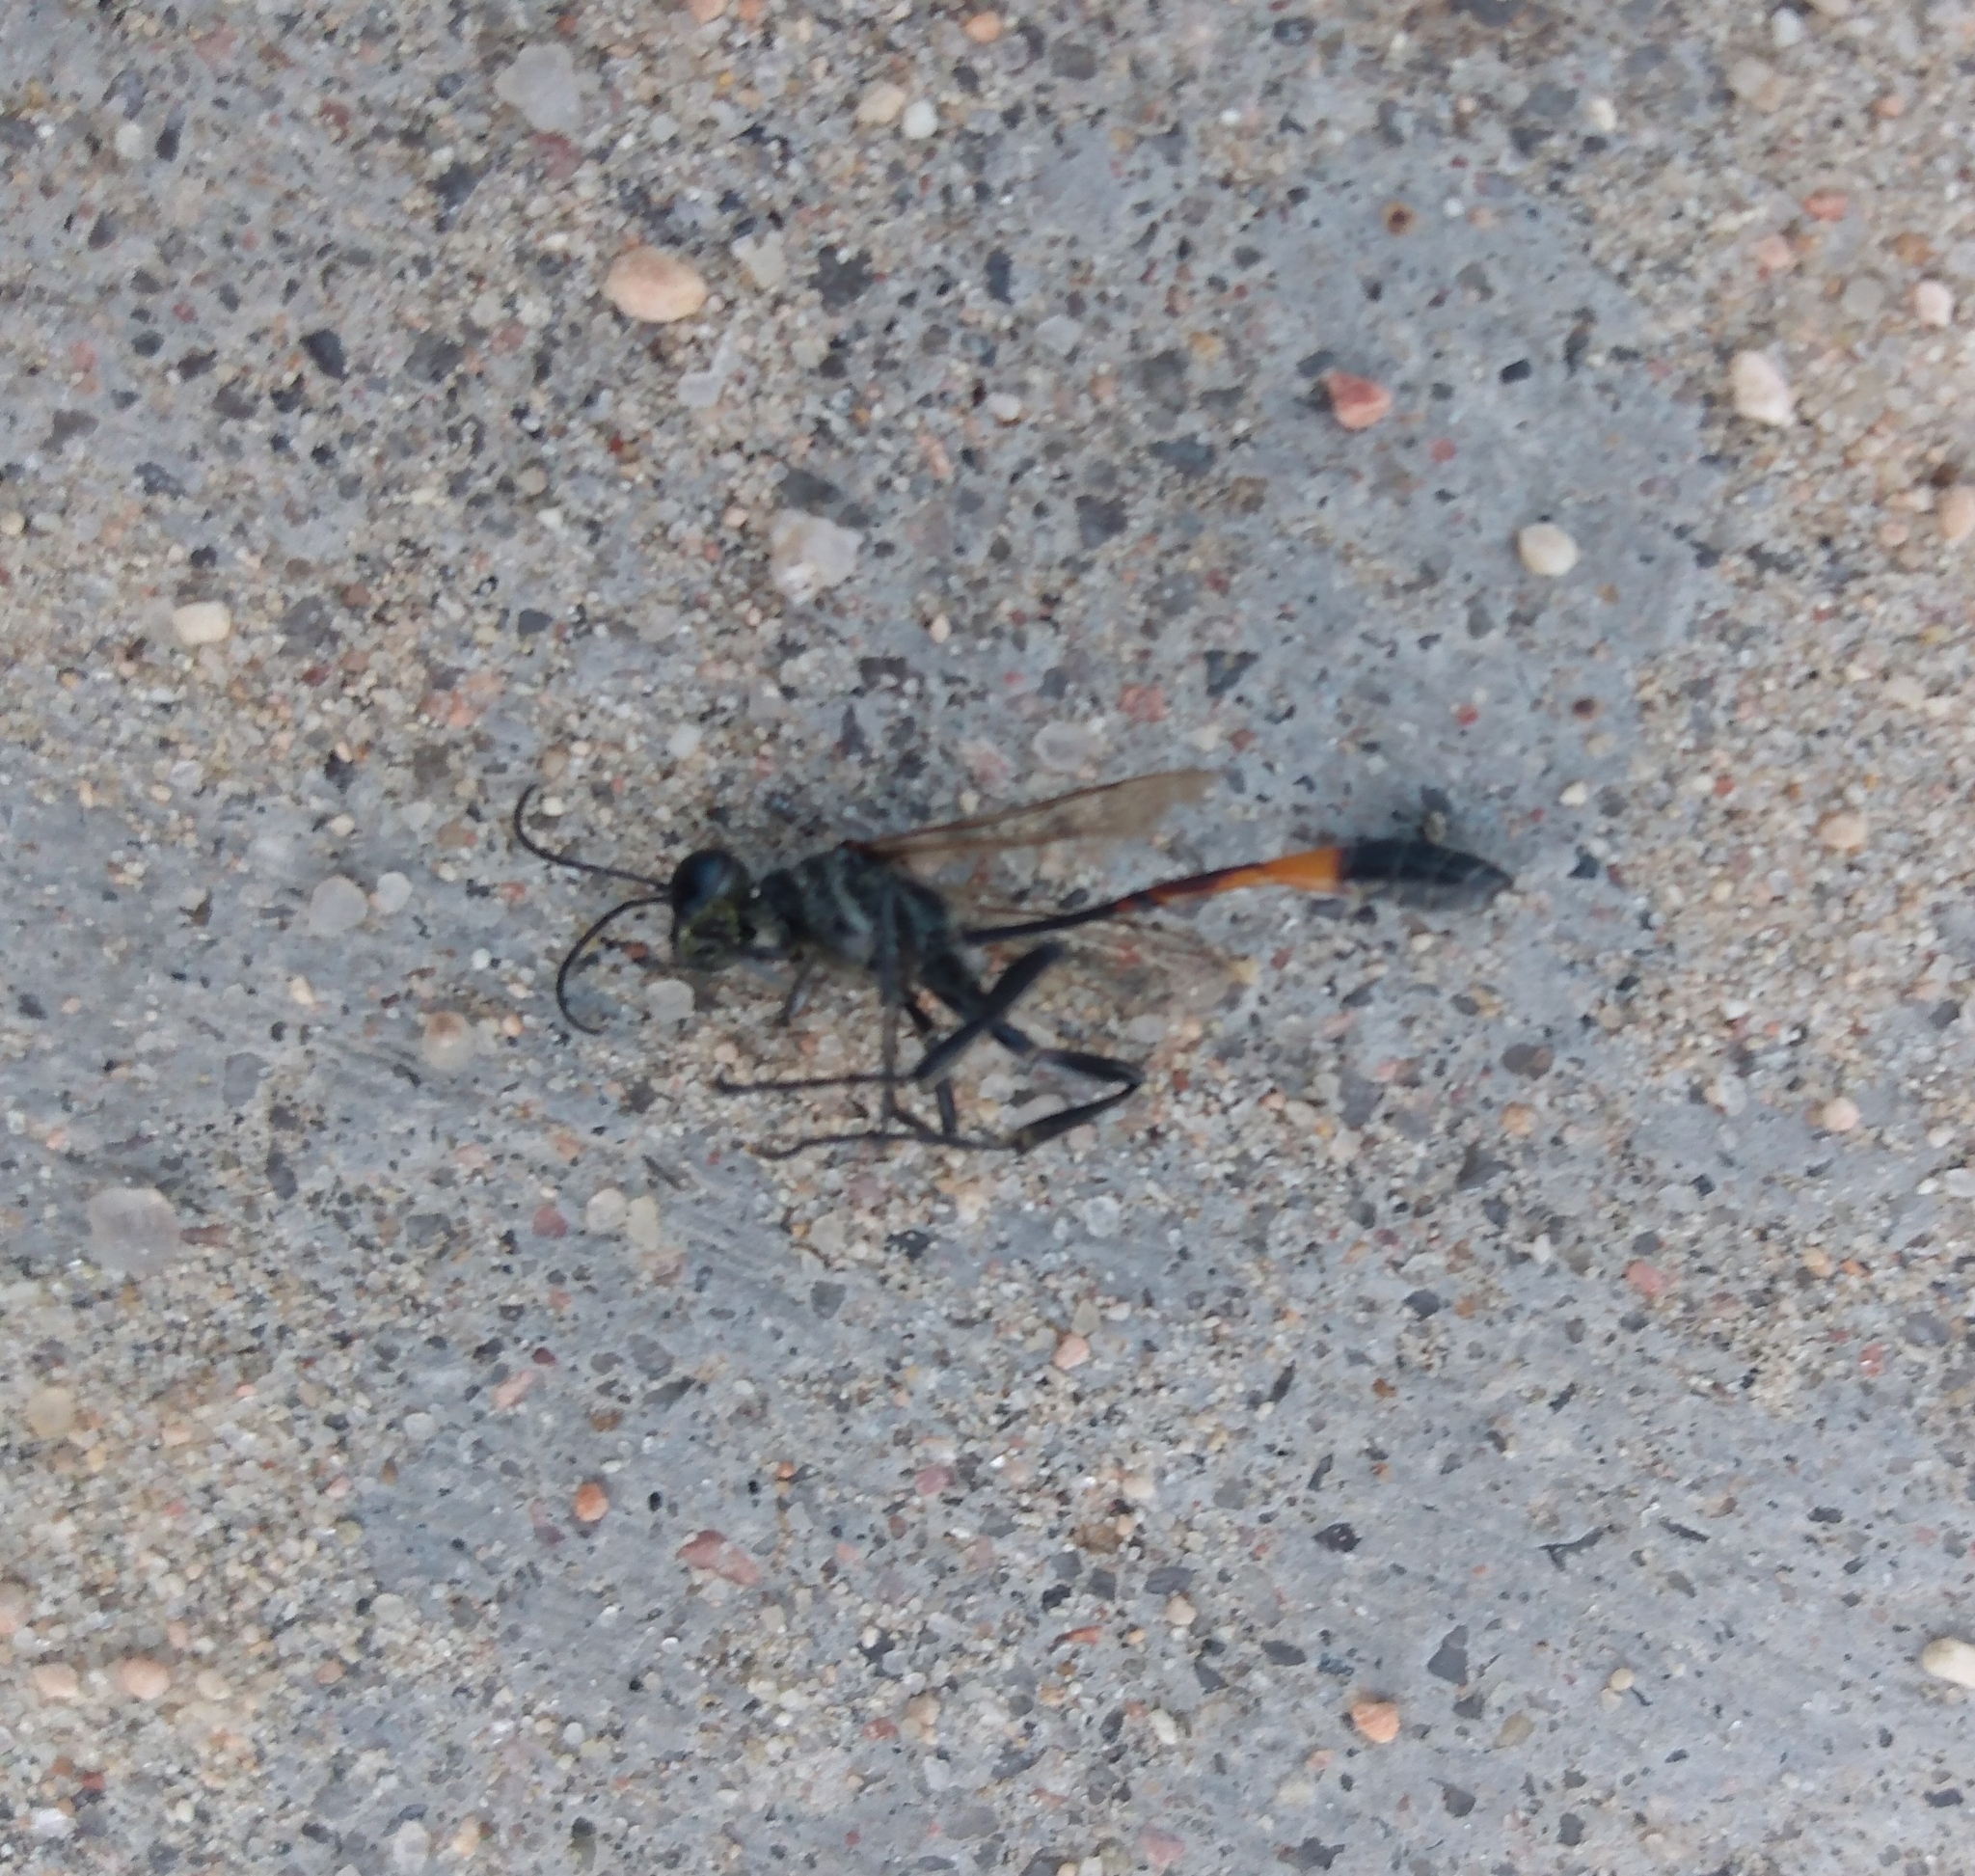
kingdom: Animalia
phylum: Arthropoda
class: Insecta
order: Hymenoptera
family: Sphecidae
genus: Ammophila
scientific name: Ammophila procera
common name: Common thread-waisted wasp
